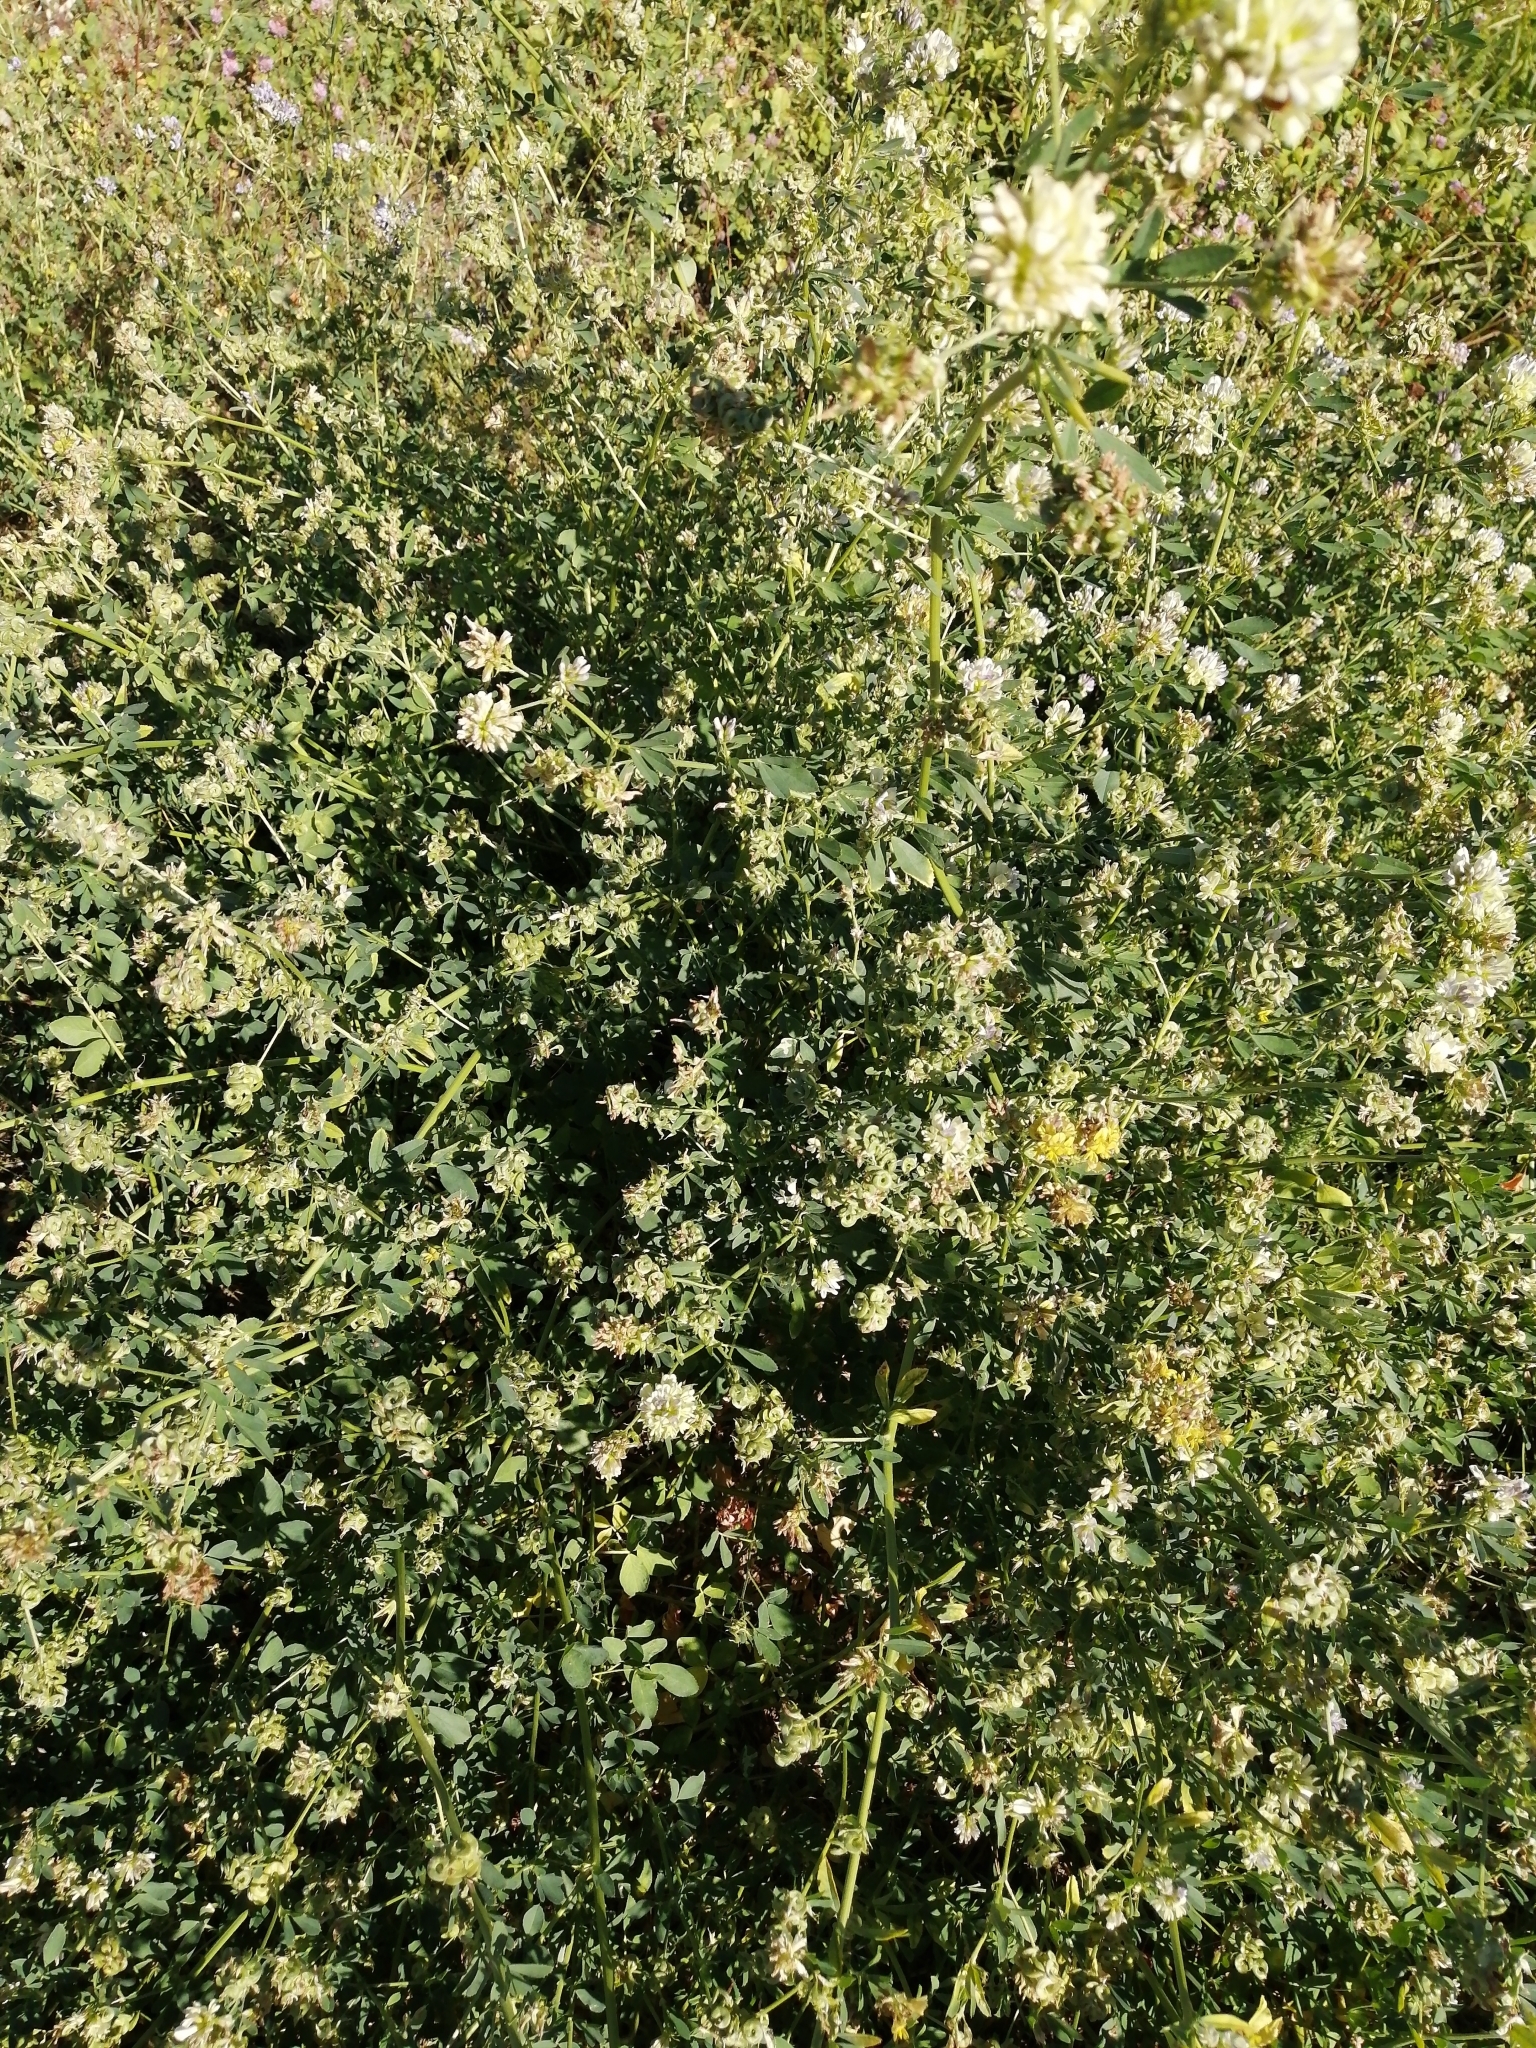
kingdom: Plantae
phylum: Tracheophyta
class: Magnoliopsida
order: Fabales
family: Fabaceae
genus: Medicago
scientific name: Medicago varia
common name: Sand lucerne
